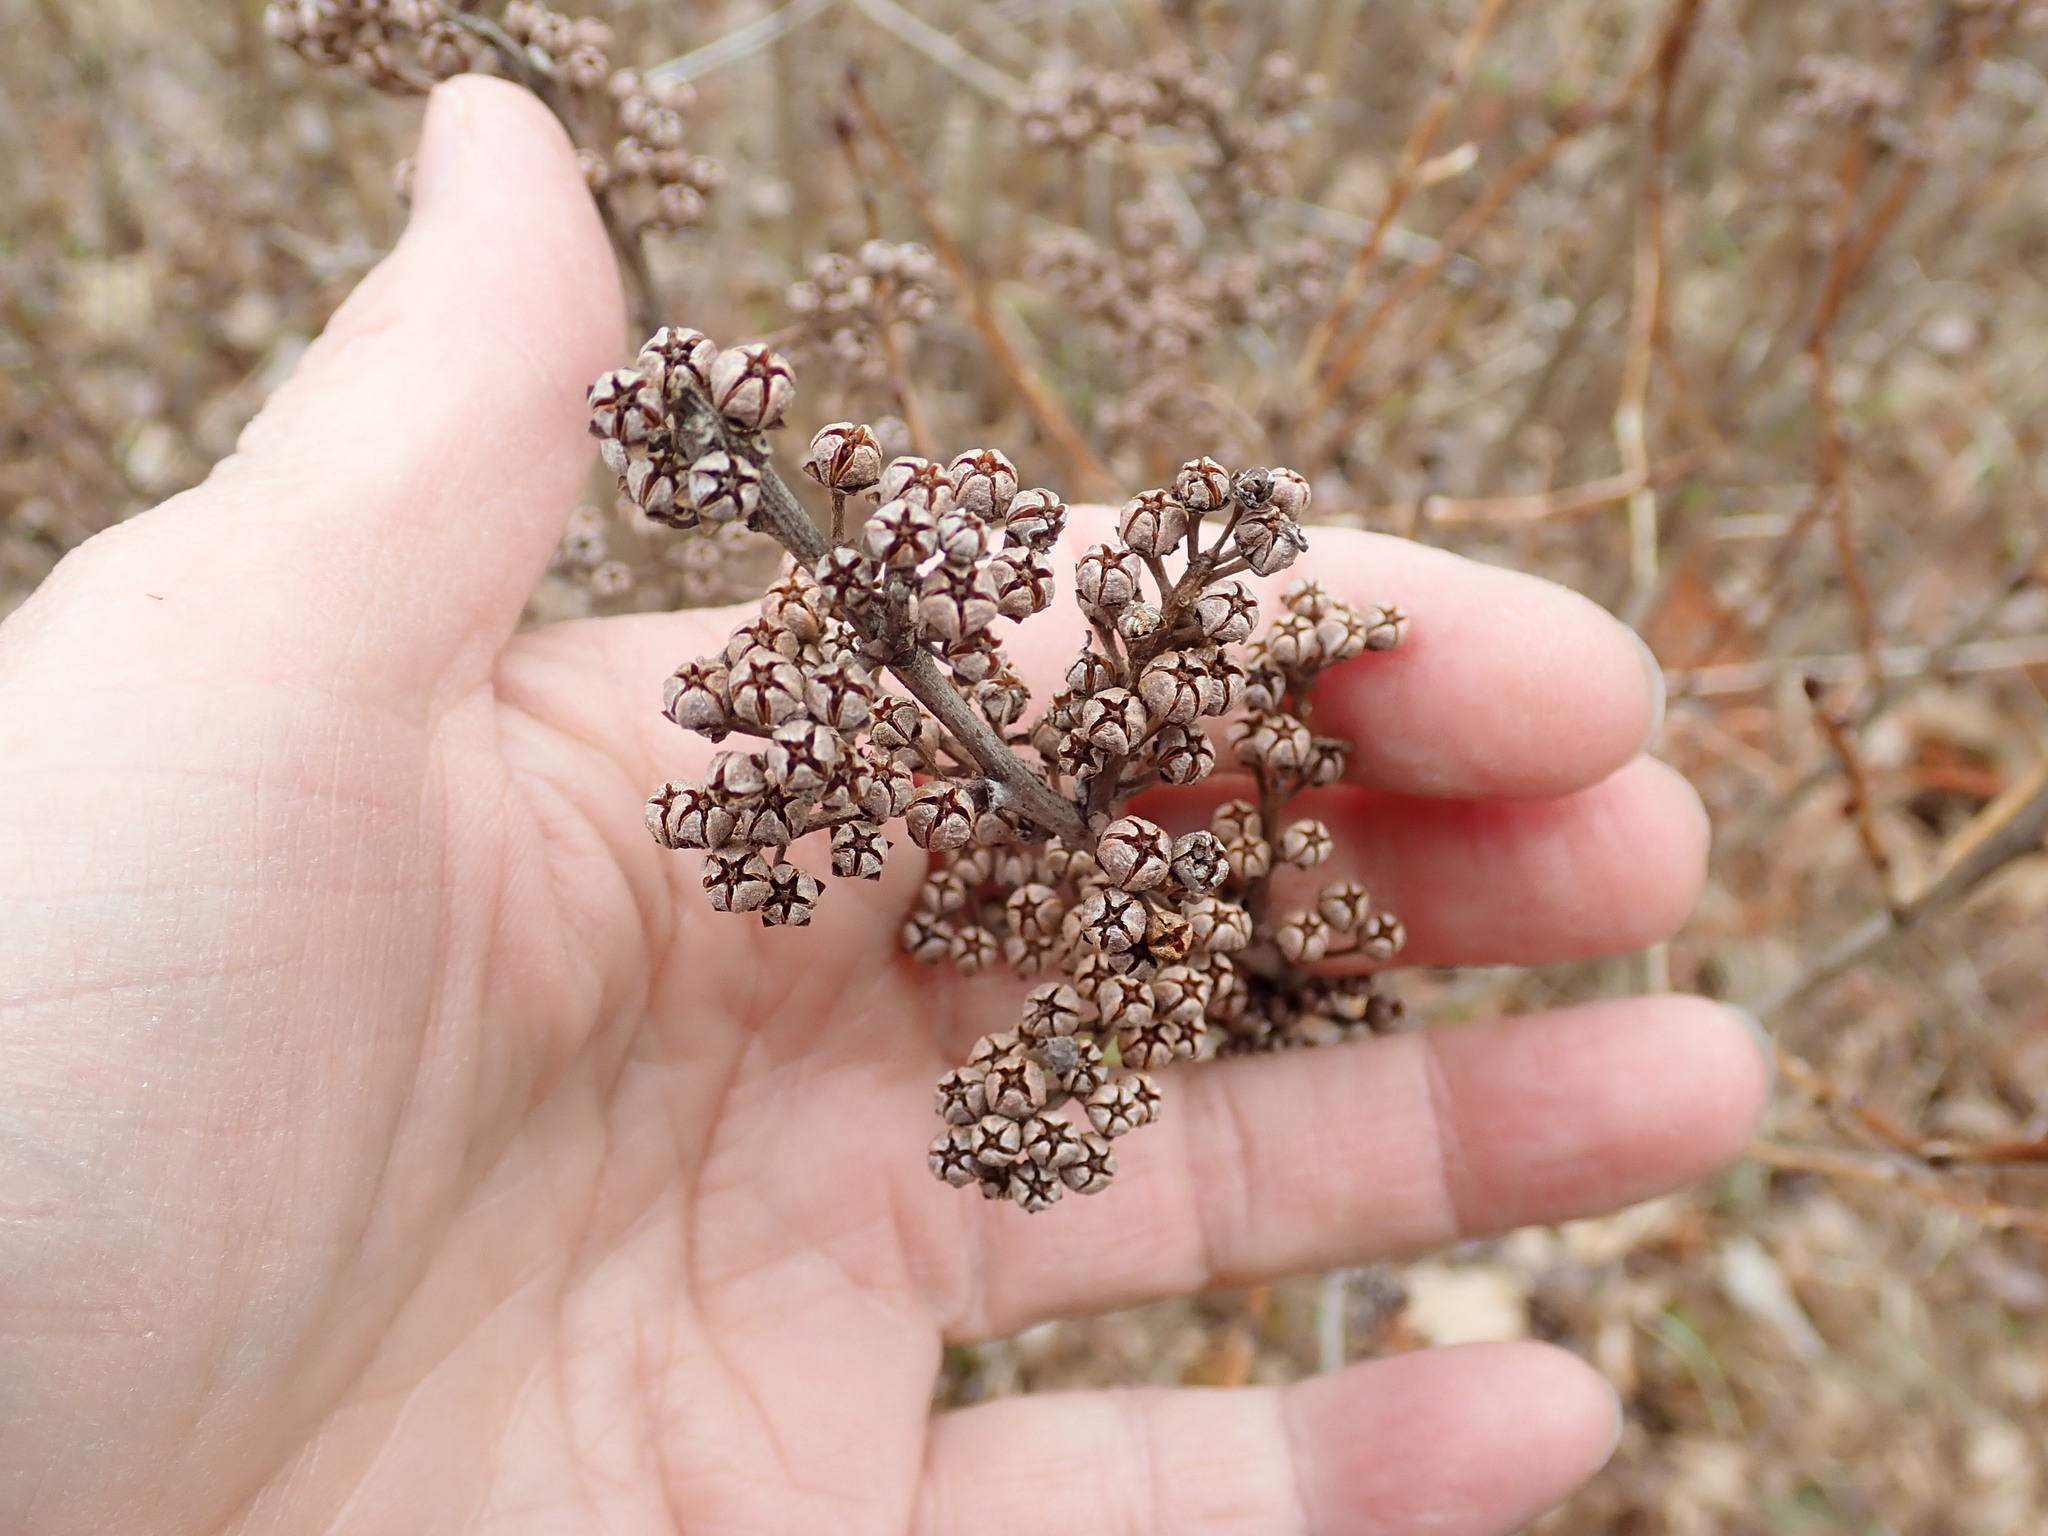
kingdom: Plantae
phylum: Tracheophyta
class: Magnoliopsida
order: Ericales
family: Ericaceae
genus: Lyonia
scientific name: Lyonia ligustrina
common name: Maleberry
